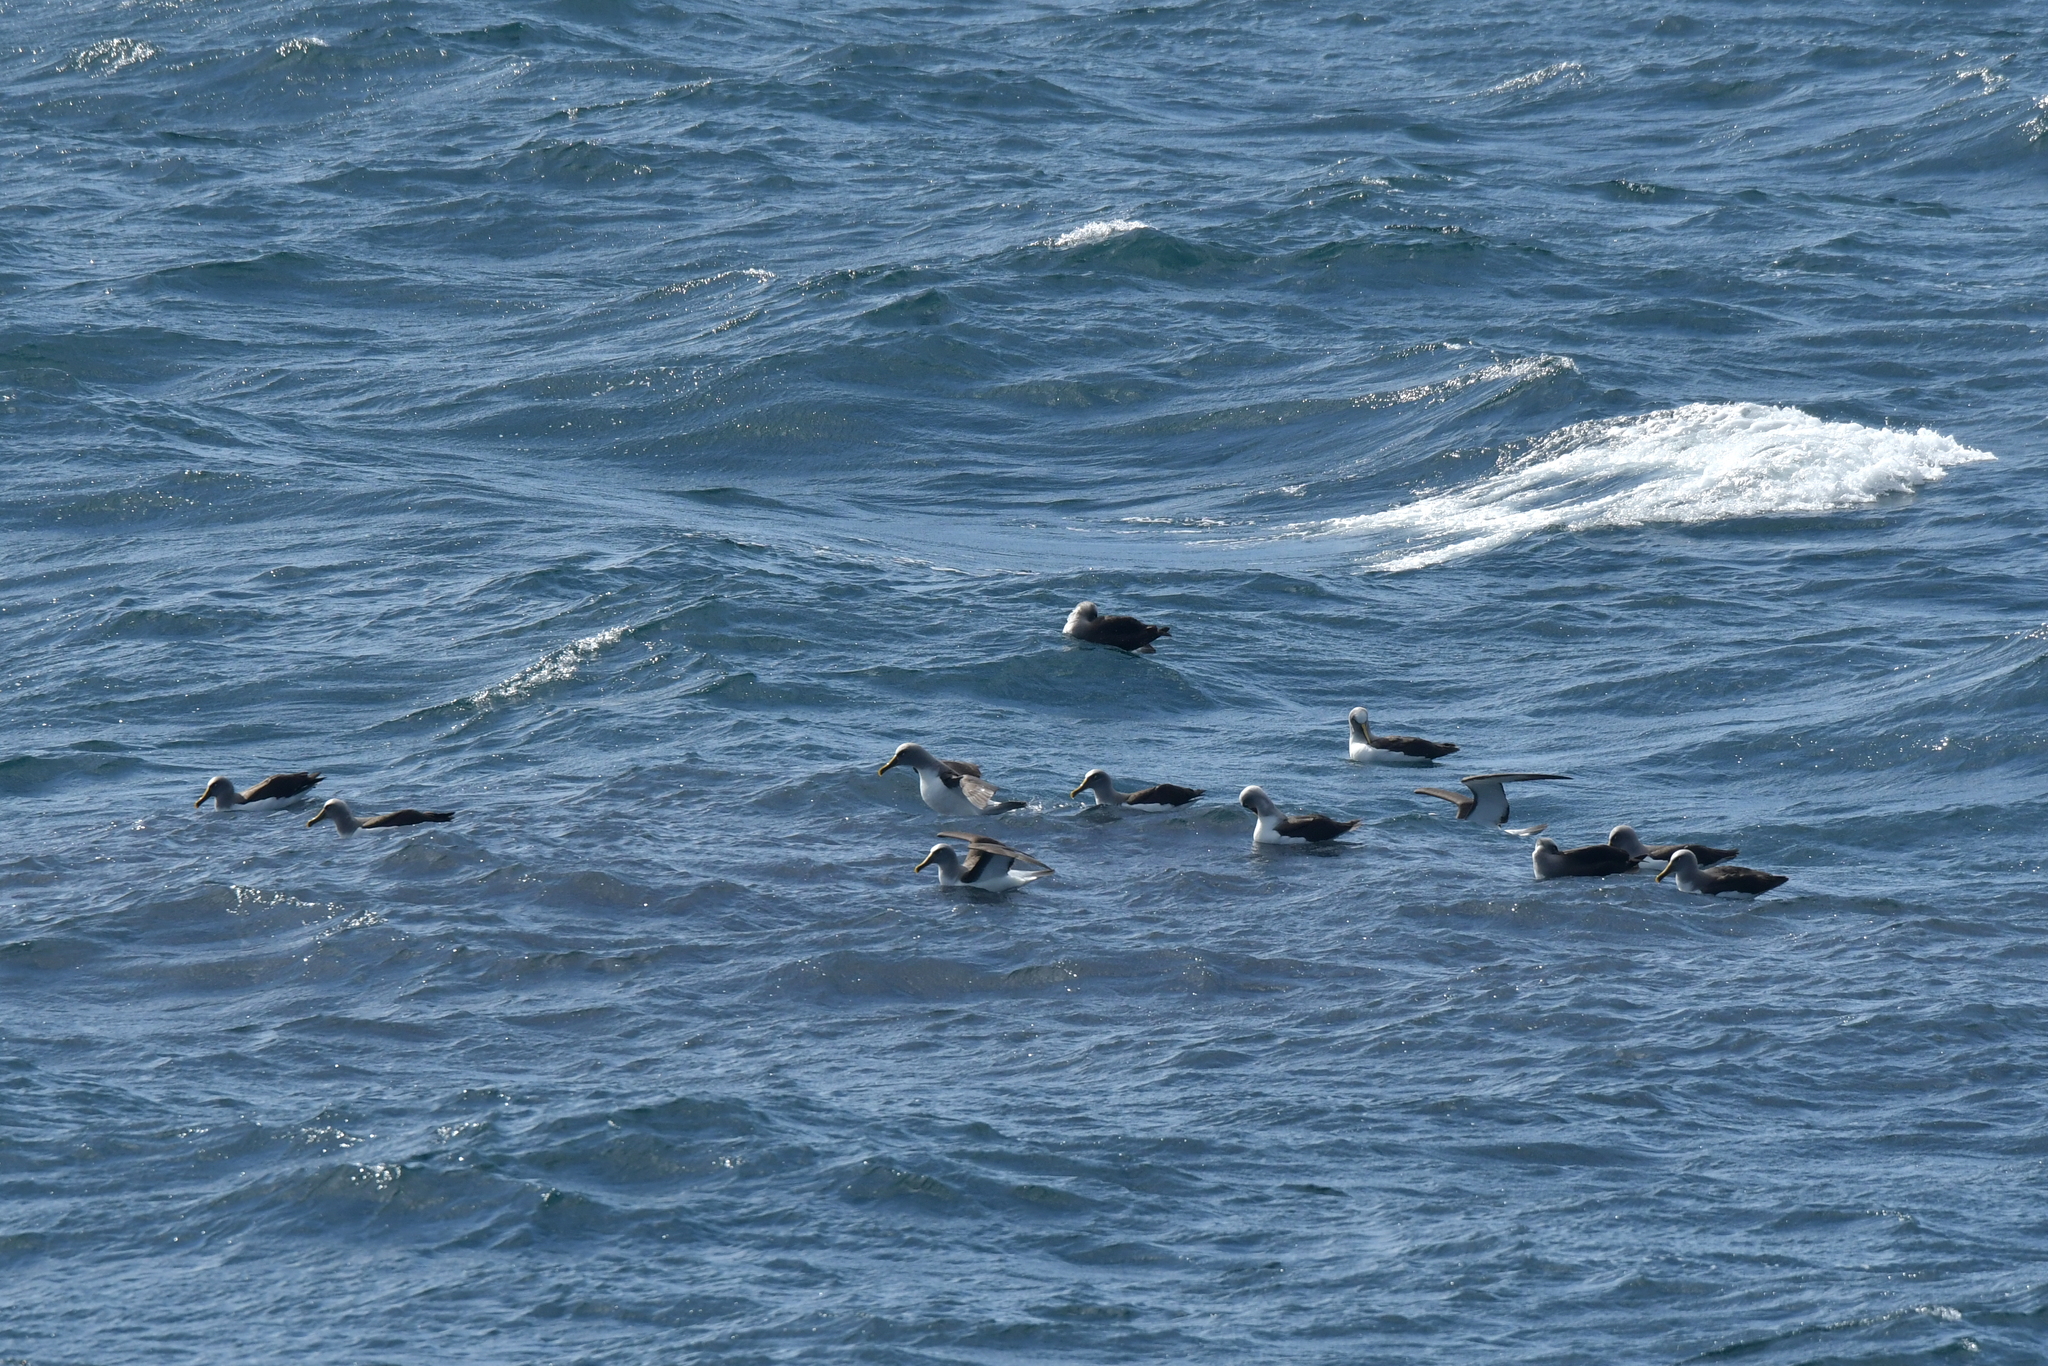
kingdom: Animalia
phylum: Chordata
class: Aves
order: Procellariiformes
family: Diomedeidae
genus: Thalassarche
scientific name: Thalassarche bulleri
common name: Buller's albatross
